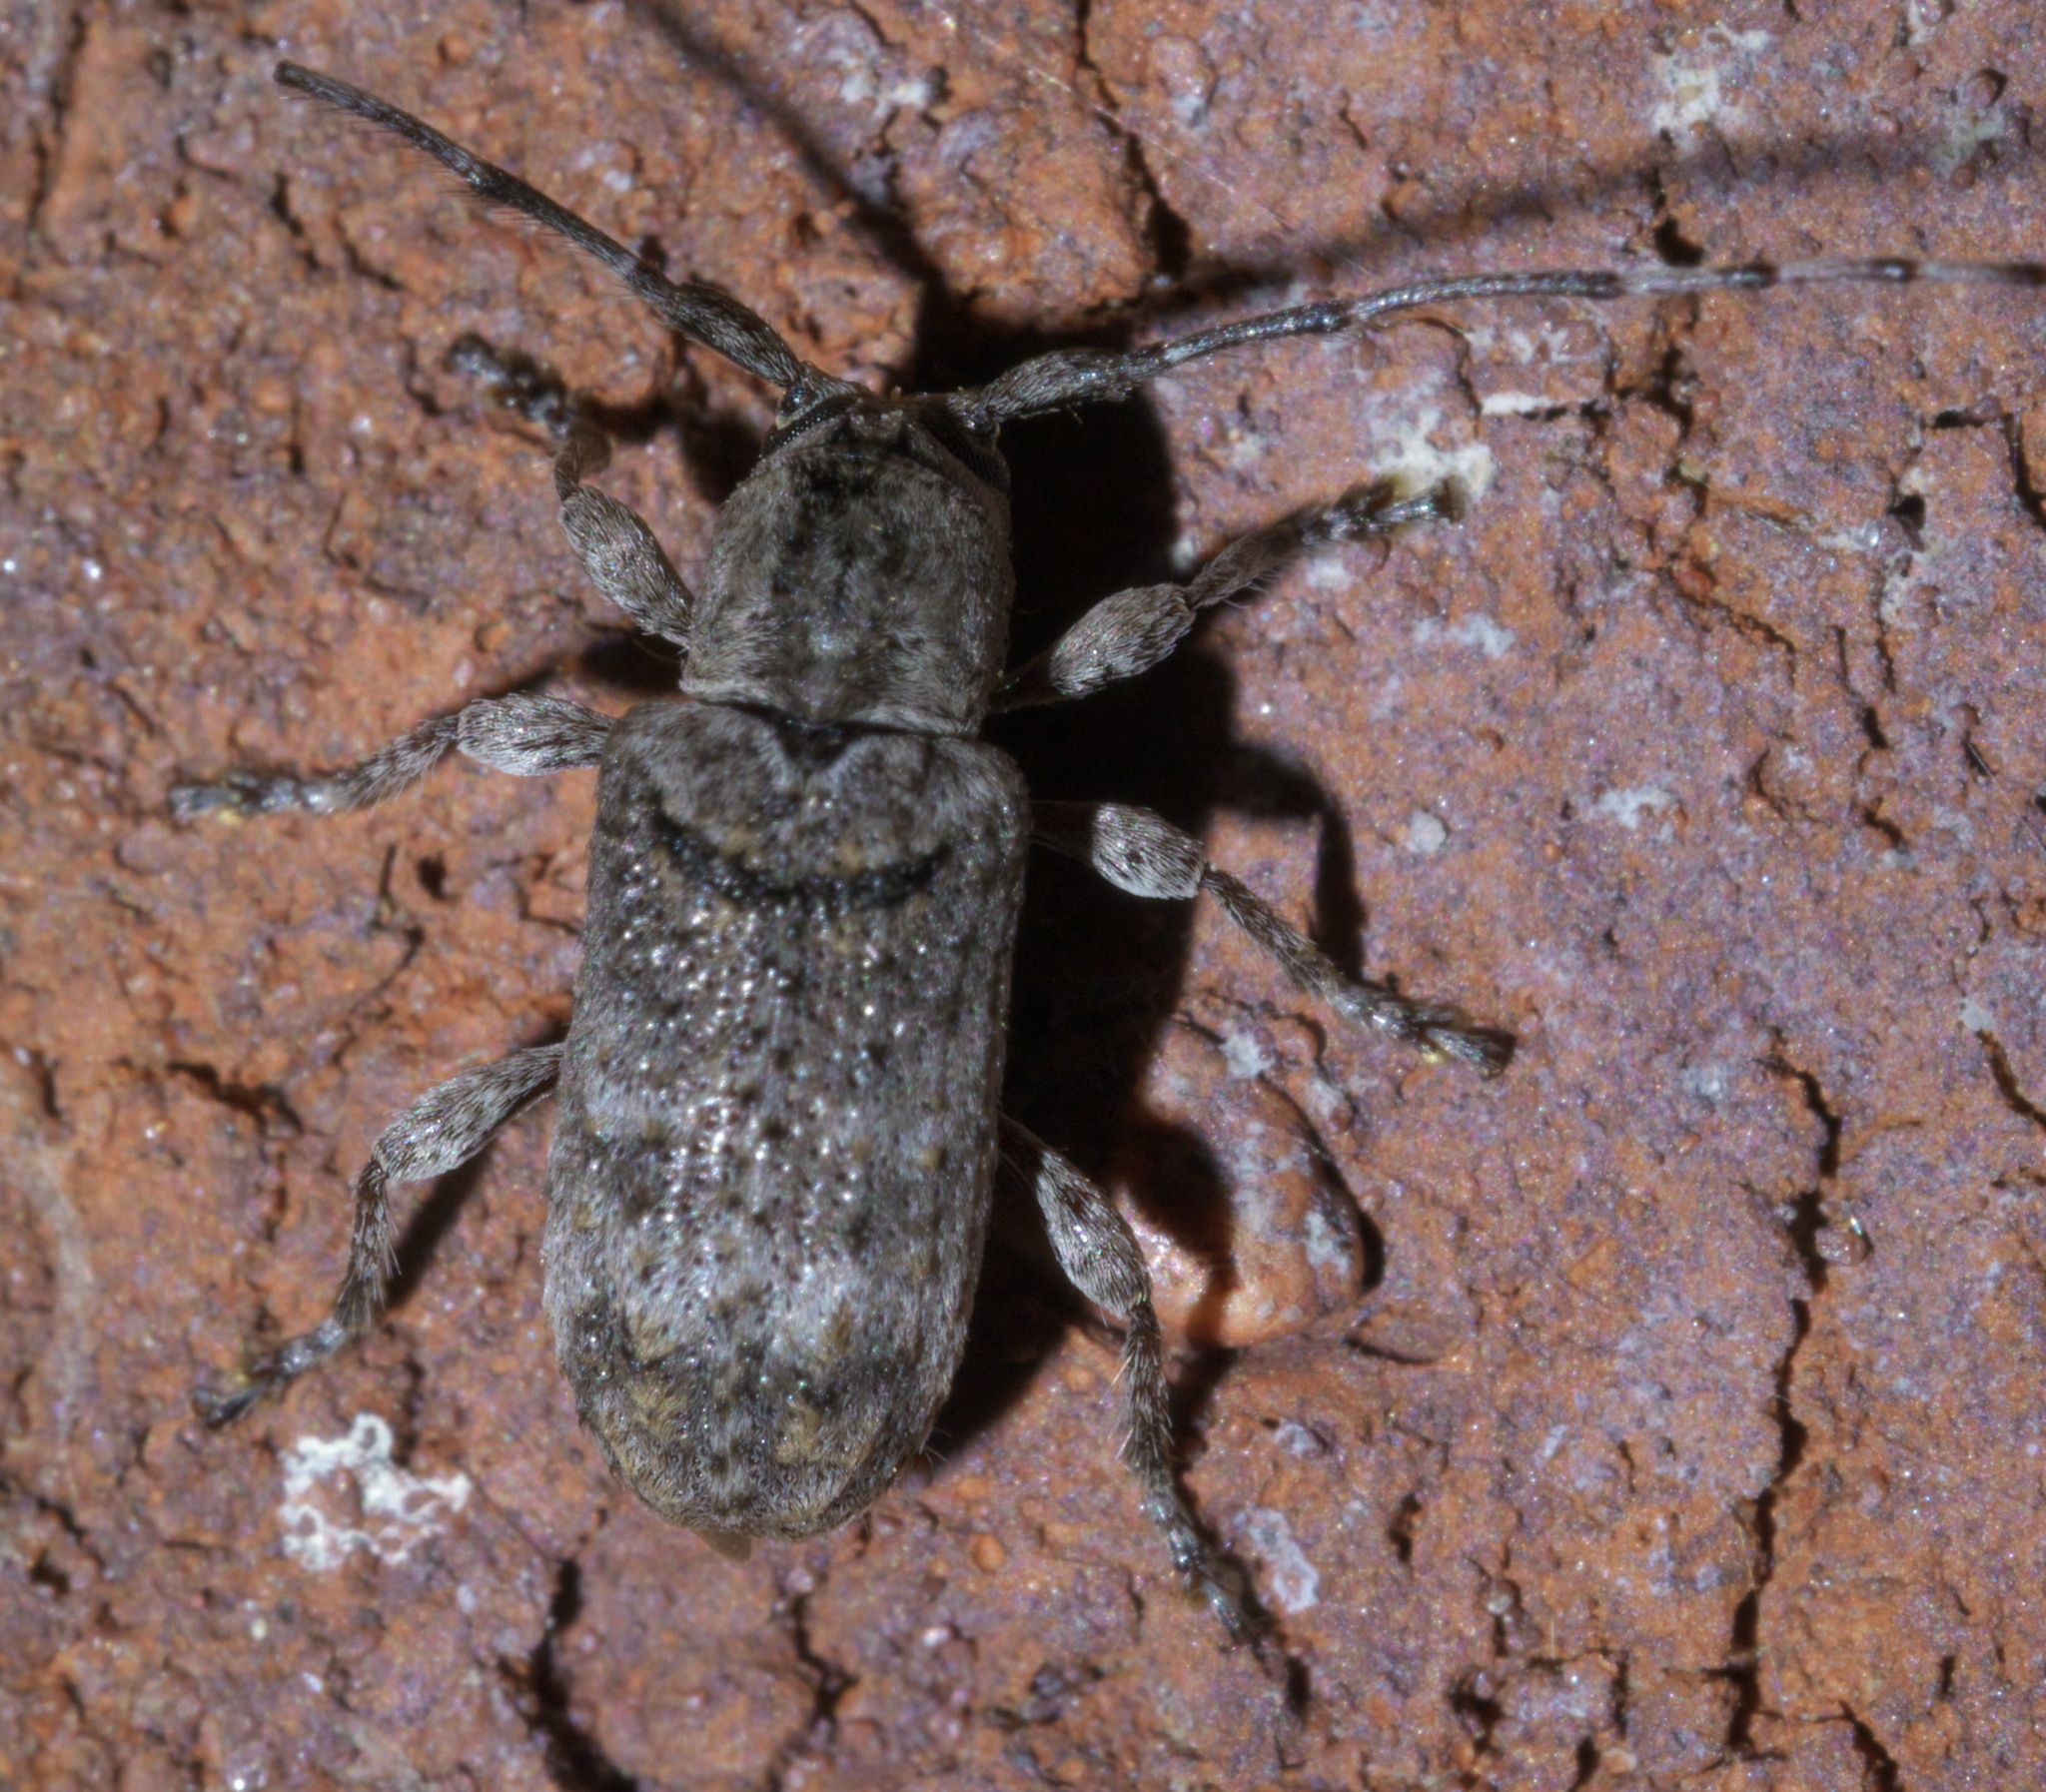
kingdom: Animalia
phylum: Arthropoda
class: Insecta
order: Coleoptera
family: Cerambycidae
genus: Ecyrus
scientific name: Ecyrus dasycerus
